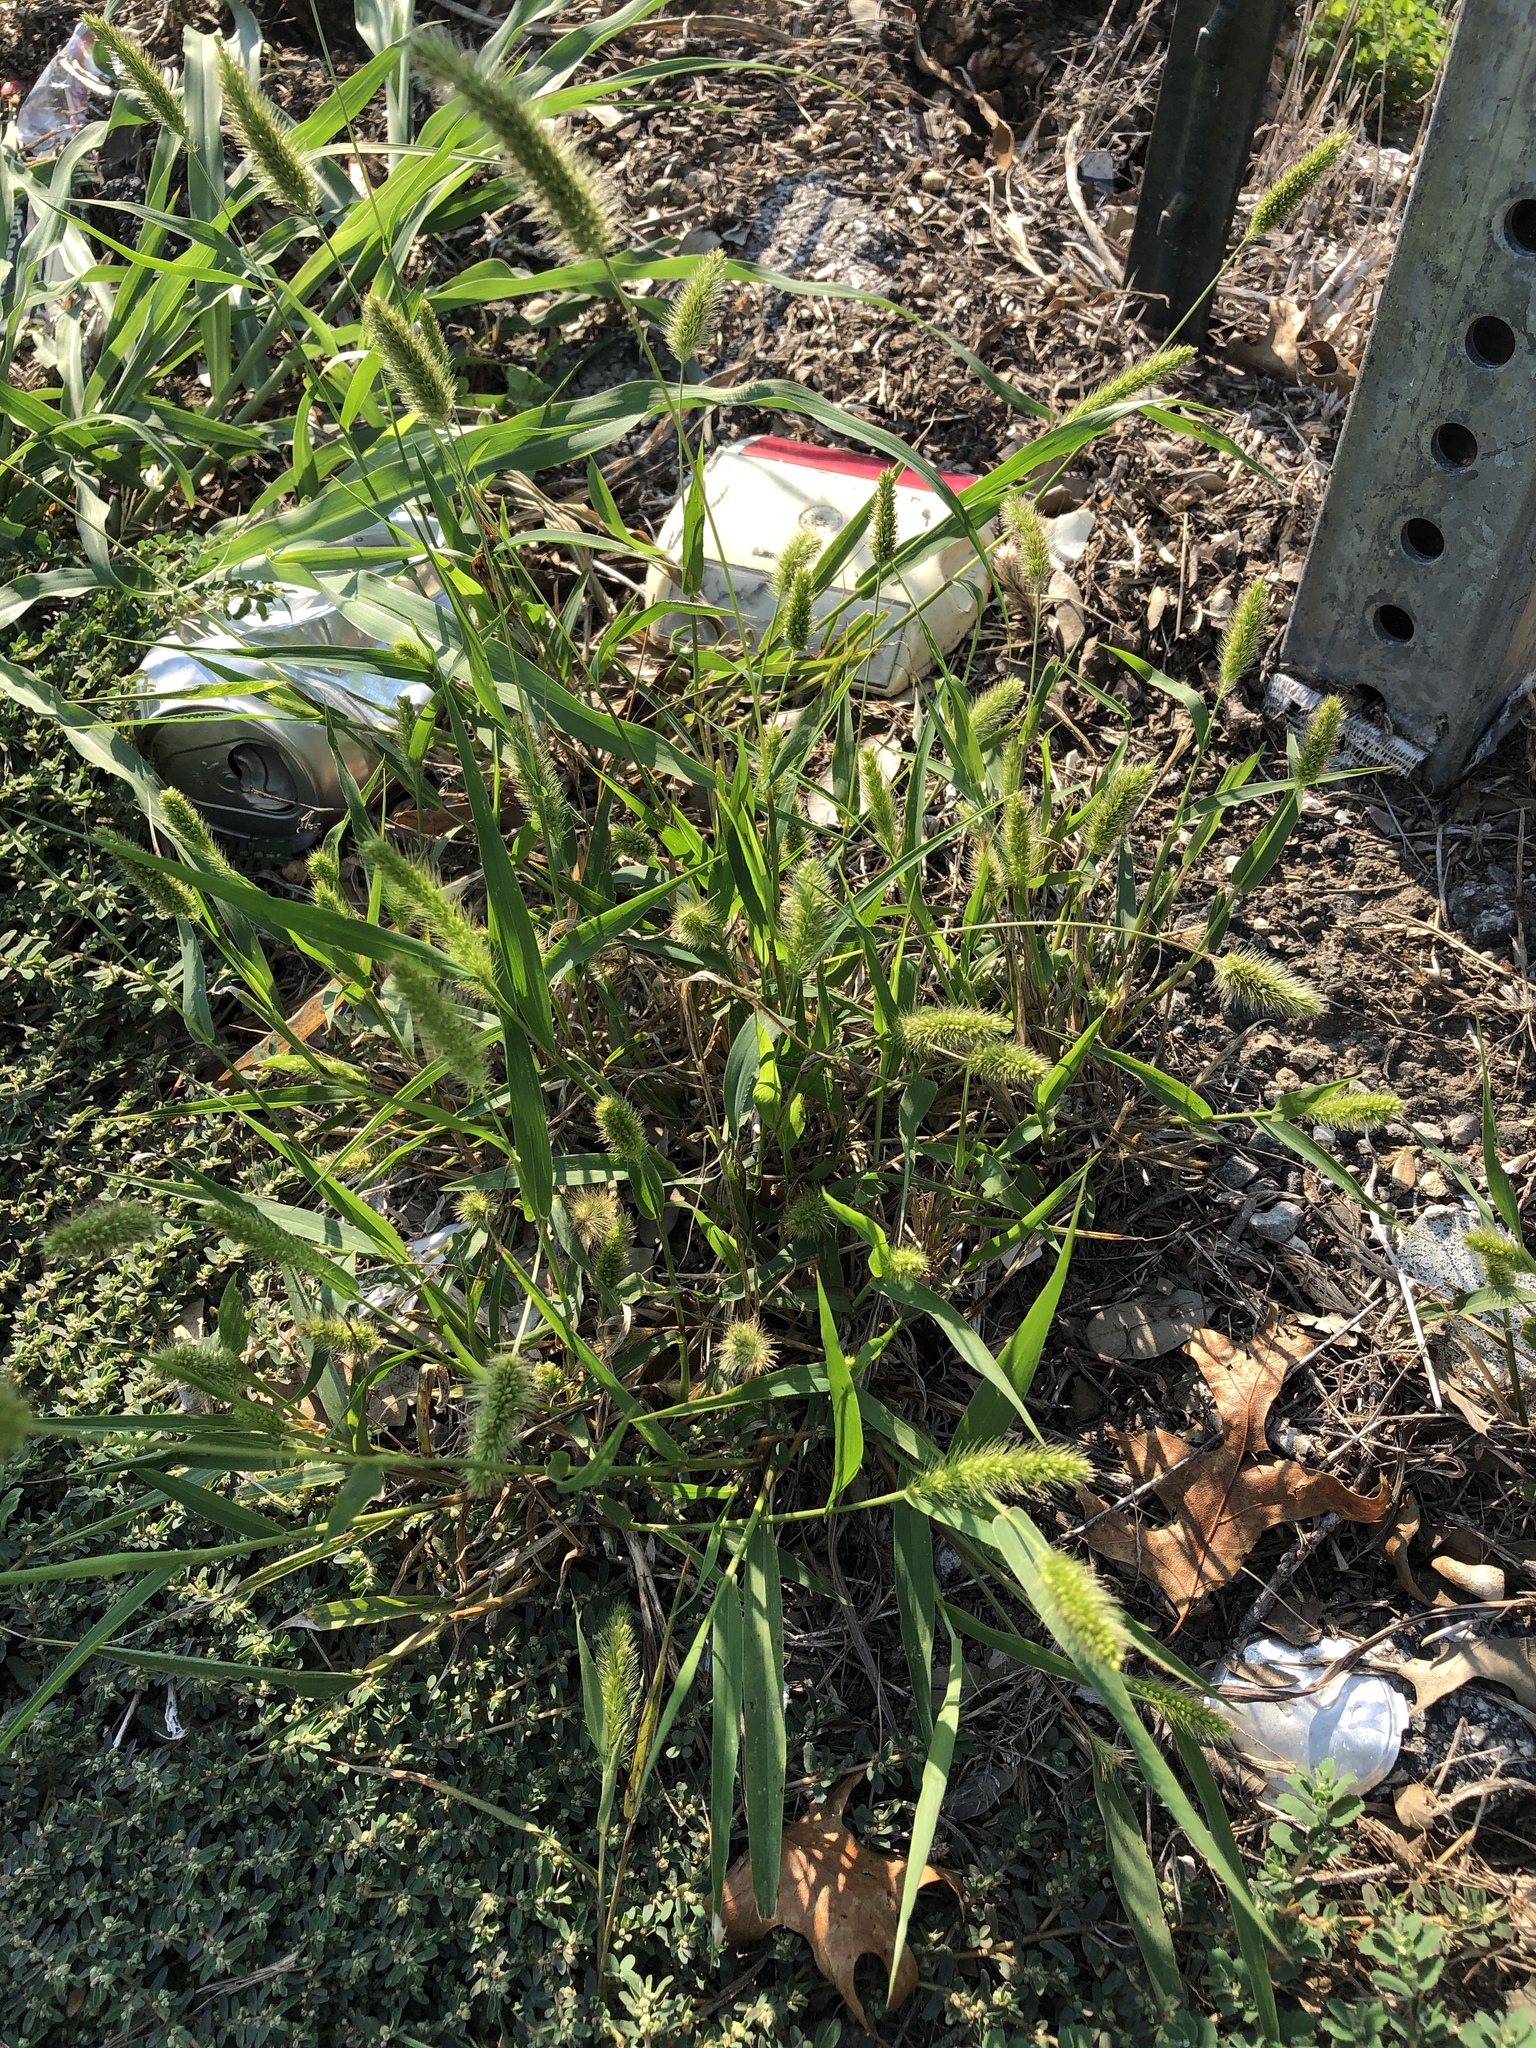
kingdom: Plantae
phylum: Tracheophyta
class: Liliopsida
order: Poales
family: Poaceae
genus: Setaria
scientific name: Setaria viridis
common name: Green bristlegrass
